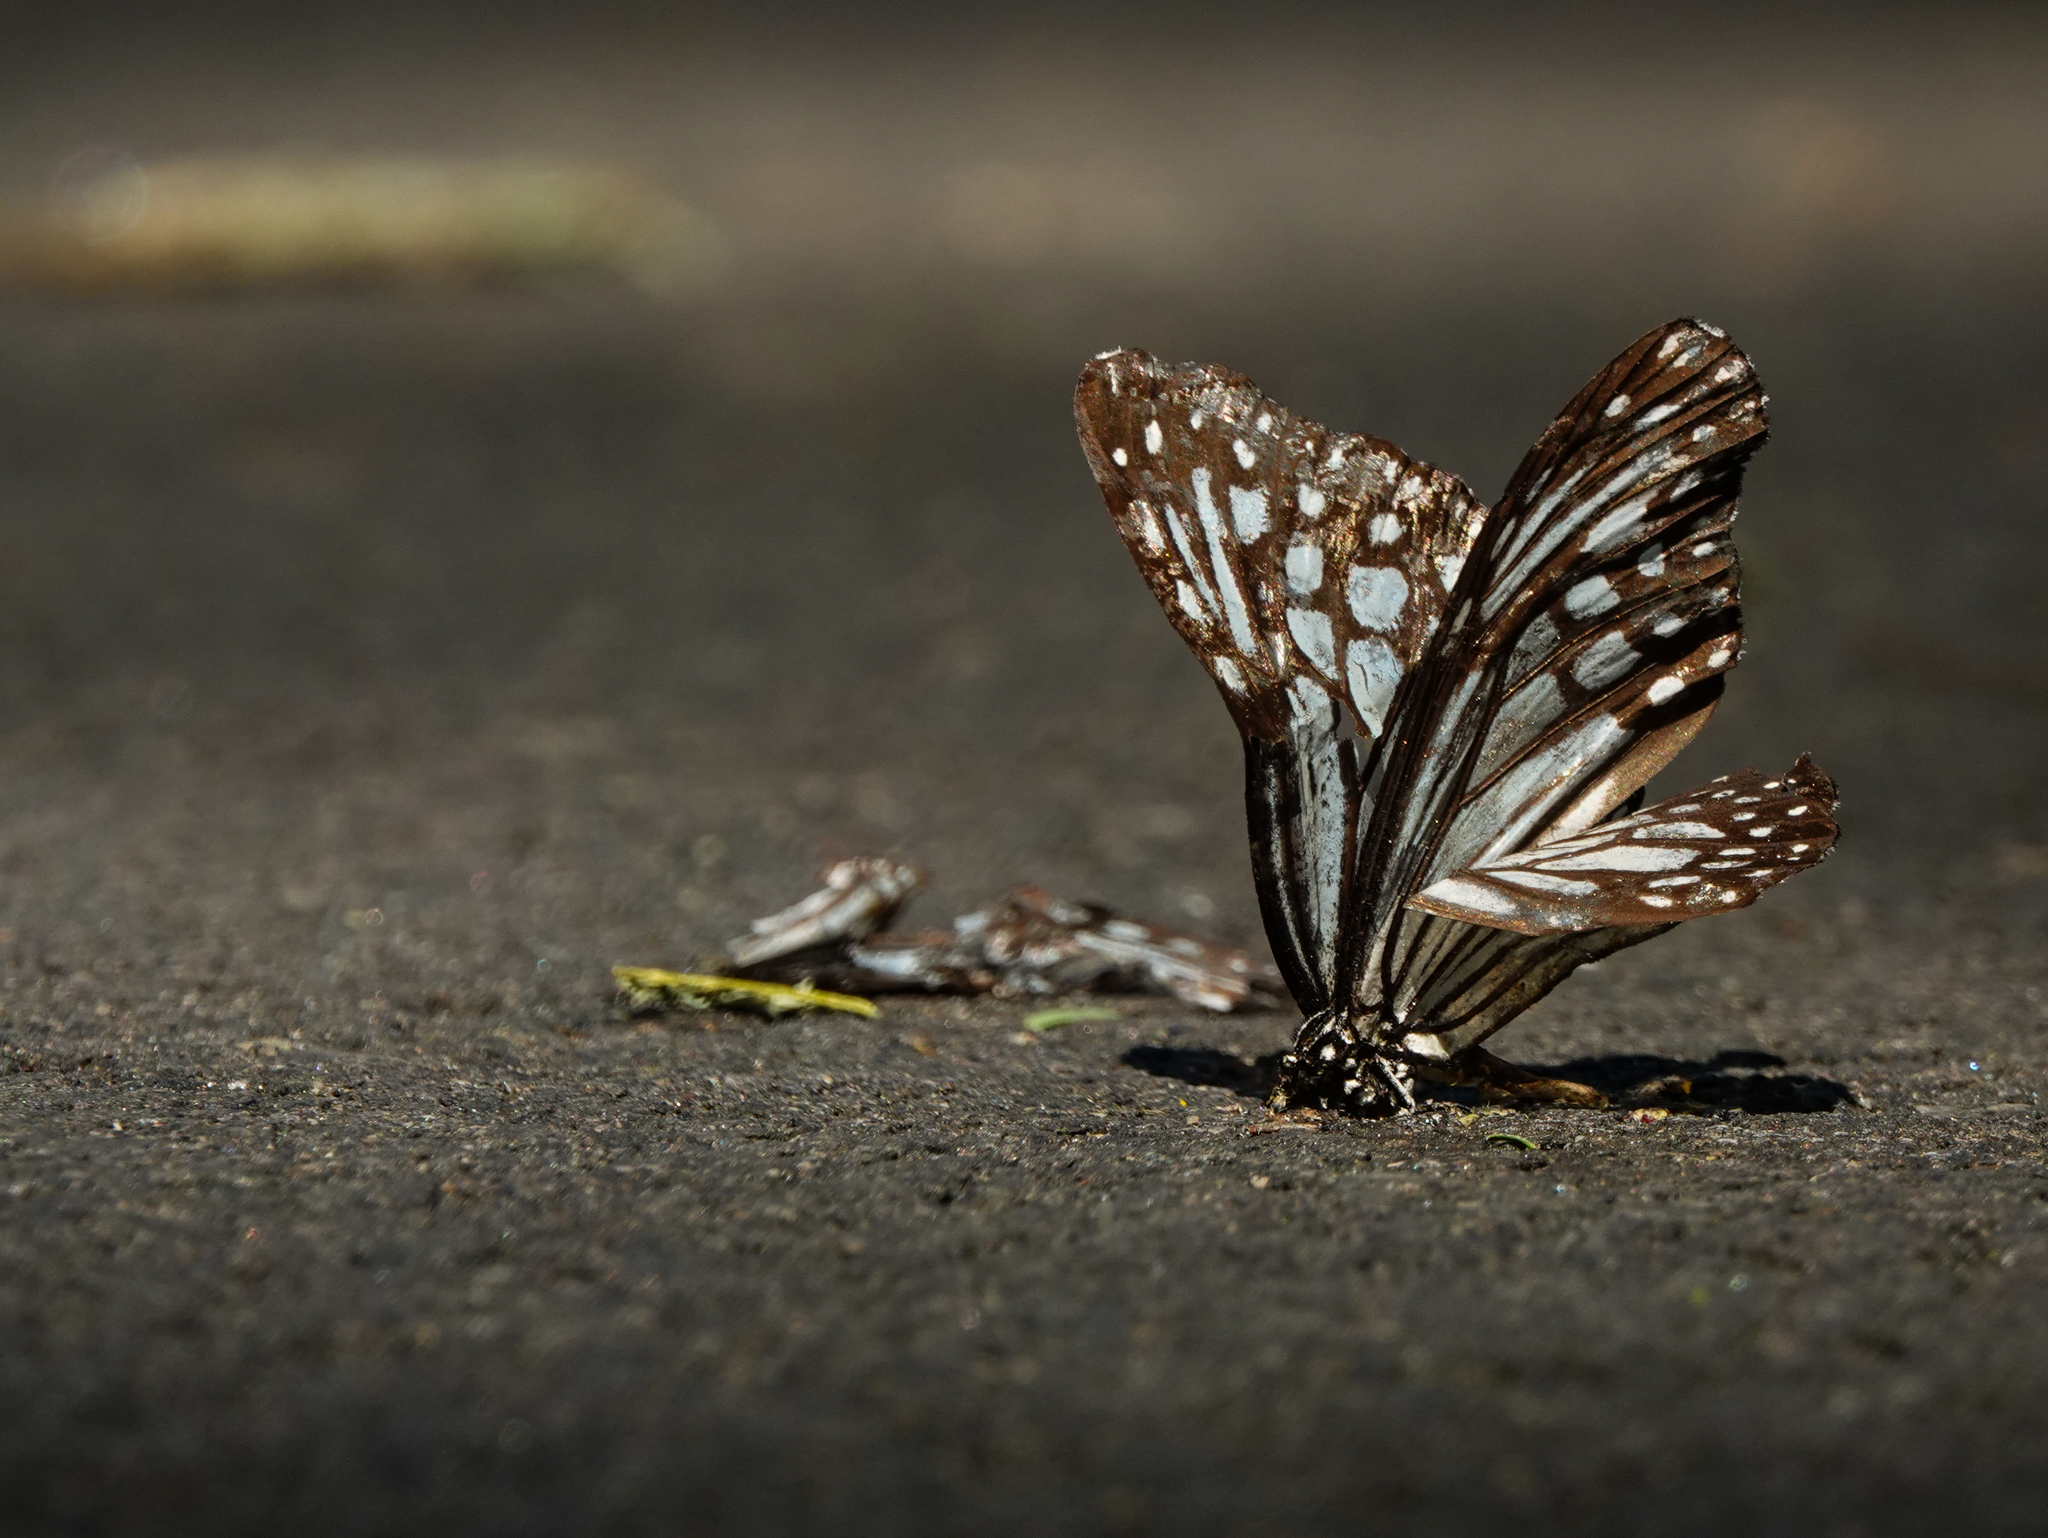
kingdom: Animalia
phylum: Arthropoda
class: Insecta
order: Lepidoptera
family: Nymphalidae
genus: Parantica
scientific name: Parantica aglea
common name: Glassy tiger
